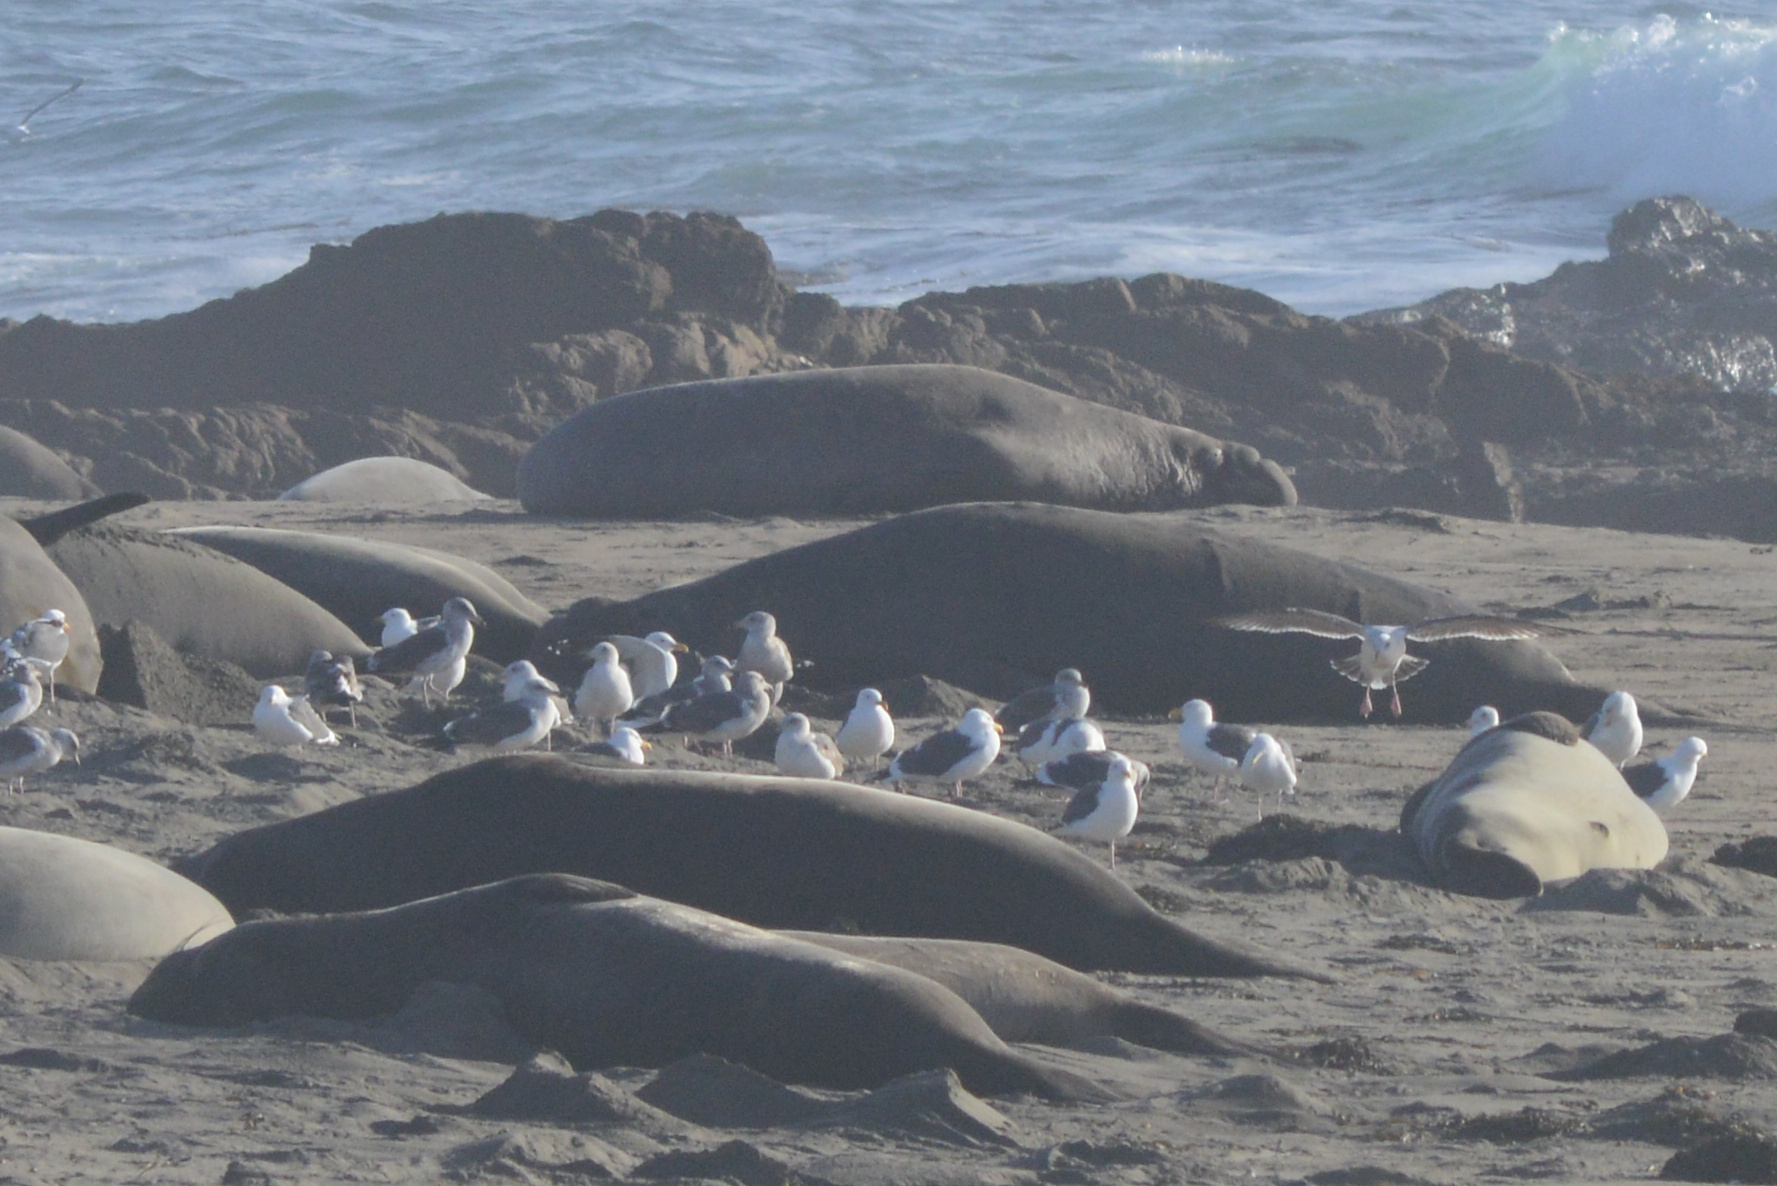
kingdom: Animalia
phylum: Chordata
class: Aves
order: Charadriiformes
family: Laridae
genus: Larus
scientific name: Larus occidentalis
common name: Western gull
